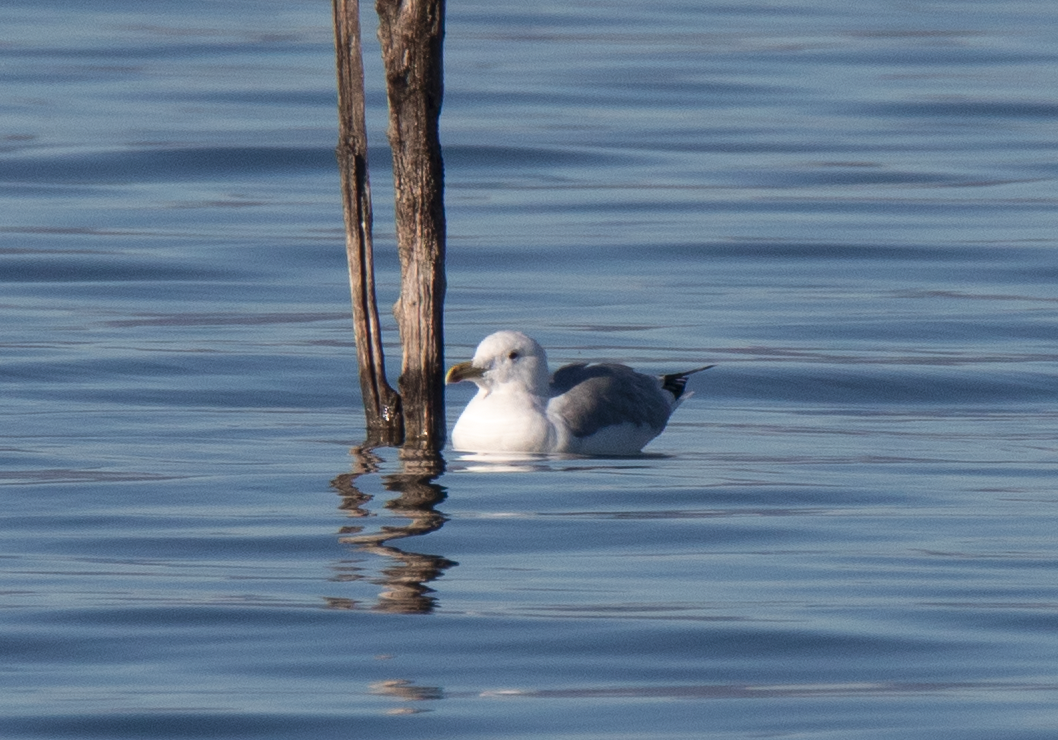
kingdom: Animalia
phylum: Chordata
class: Aves
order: Charadriiformes
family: Laridae
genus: Larus
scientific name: Larus cachinnans
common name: Caspian gull
